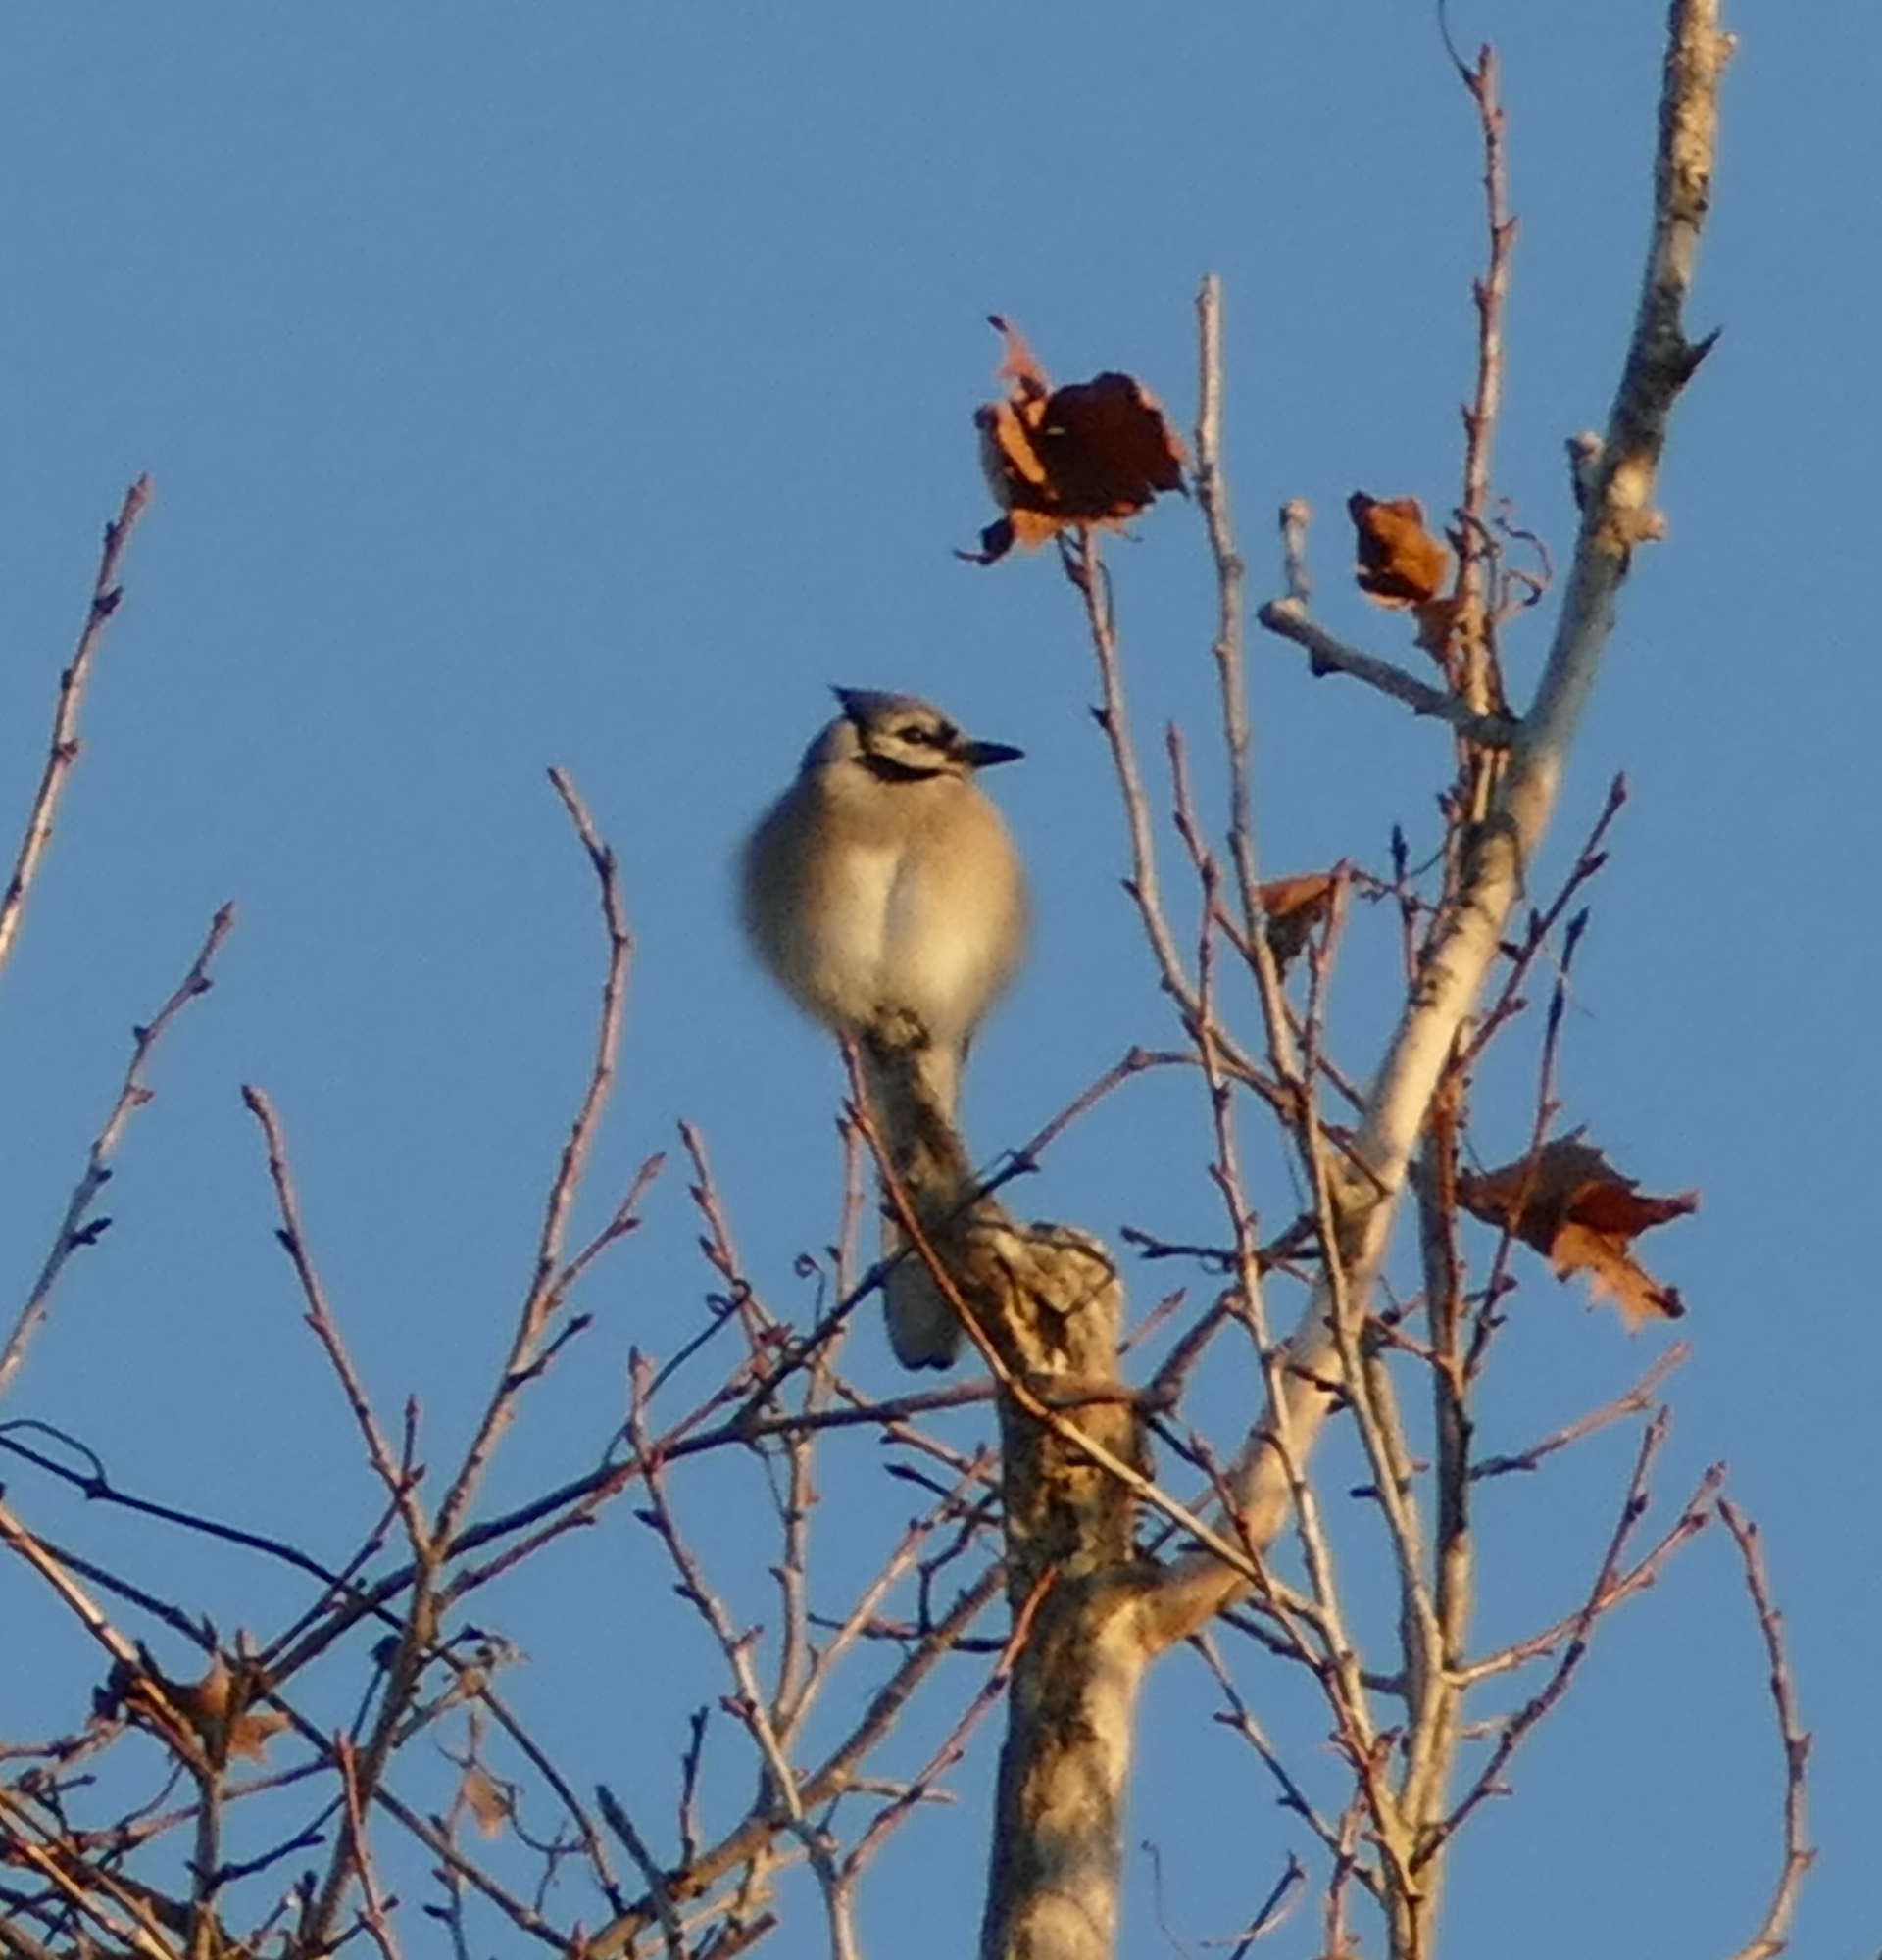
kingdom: Animalia
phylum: Chordata
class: Aves
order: Passeriformes
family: Corvidae
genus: Cyanocitta
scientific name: Cyanocitta cristata
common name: Blue jay
